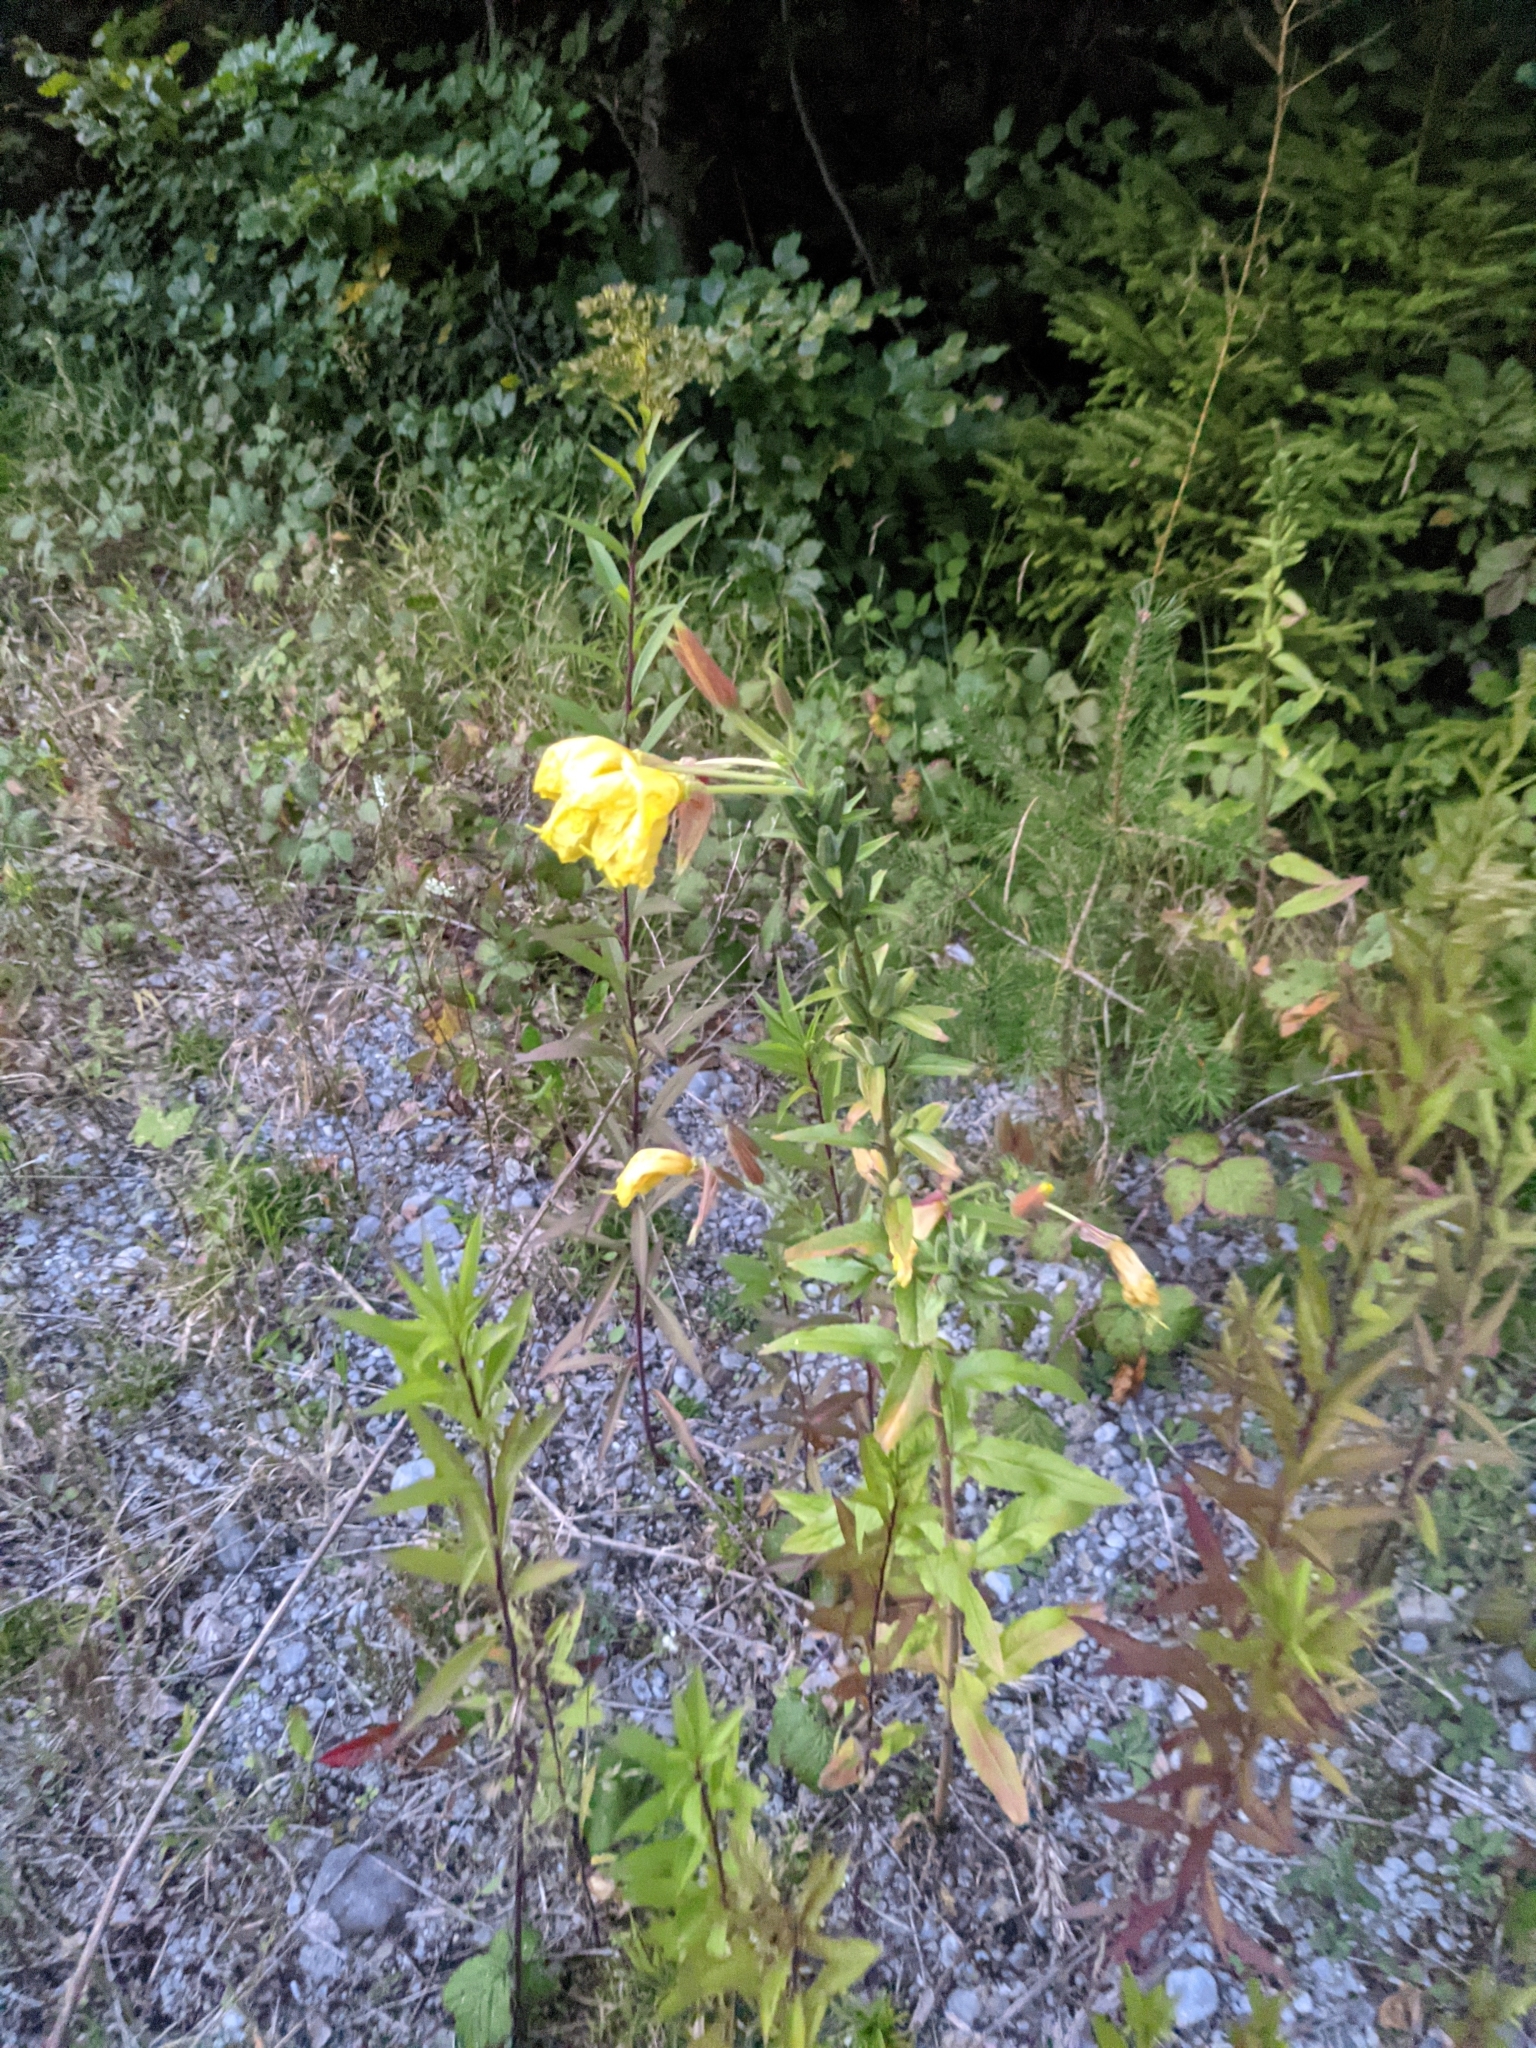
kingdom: Plantae
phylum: Tracheophyta
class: Magnoliopsida
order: Myrtales
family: Onagraceae
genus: Oenothera
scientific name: Oenothera glazioviana
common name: Large-flowered evening-primrose
